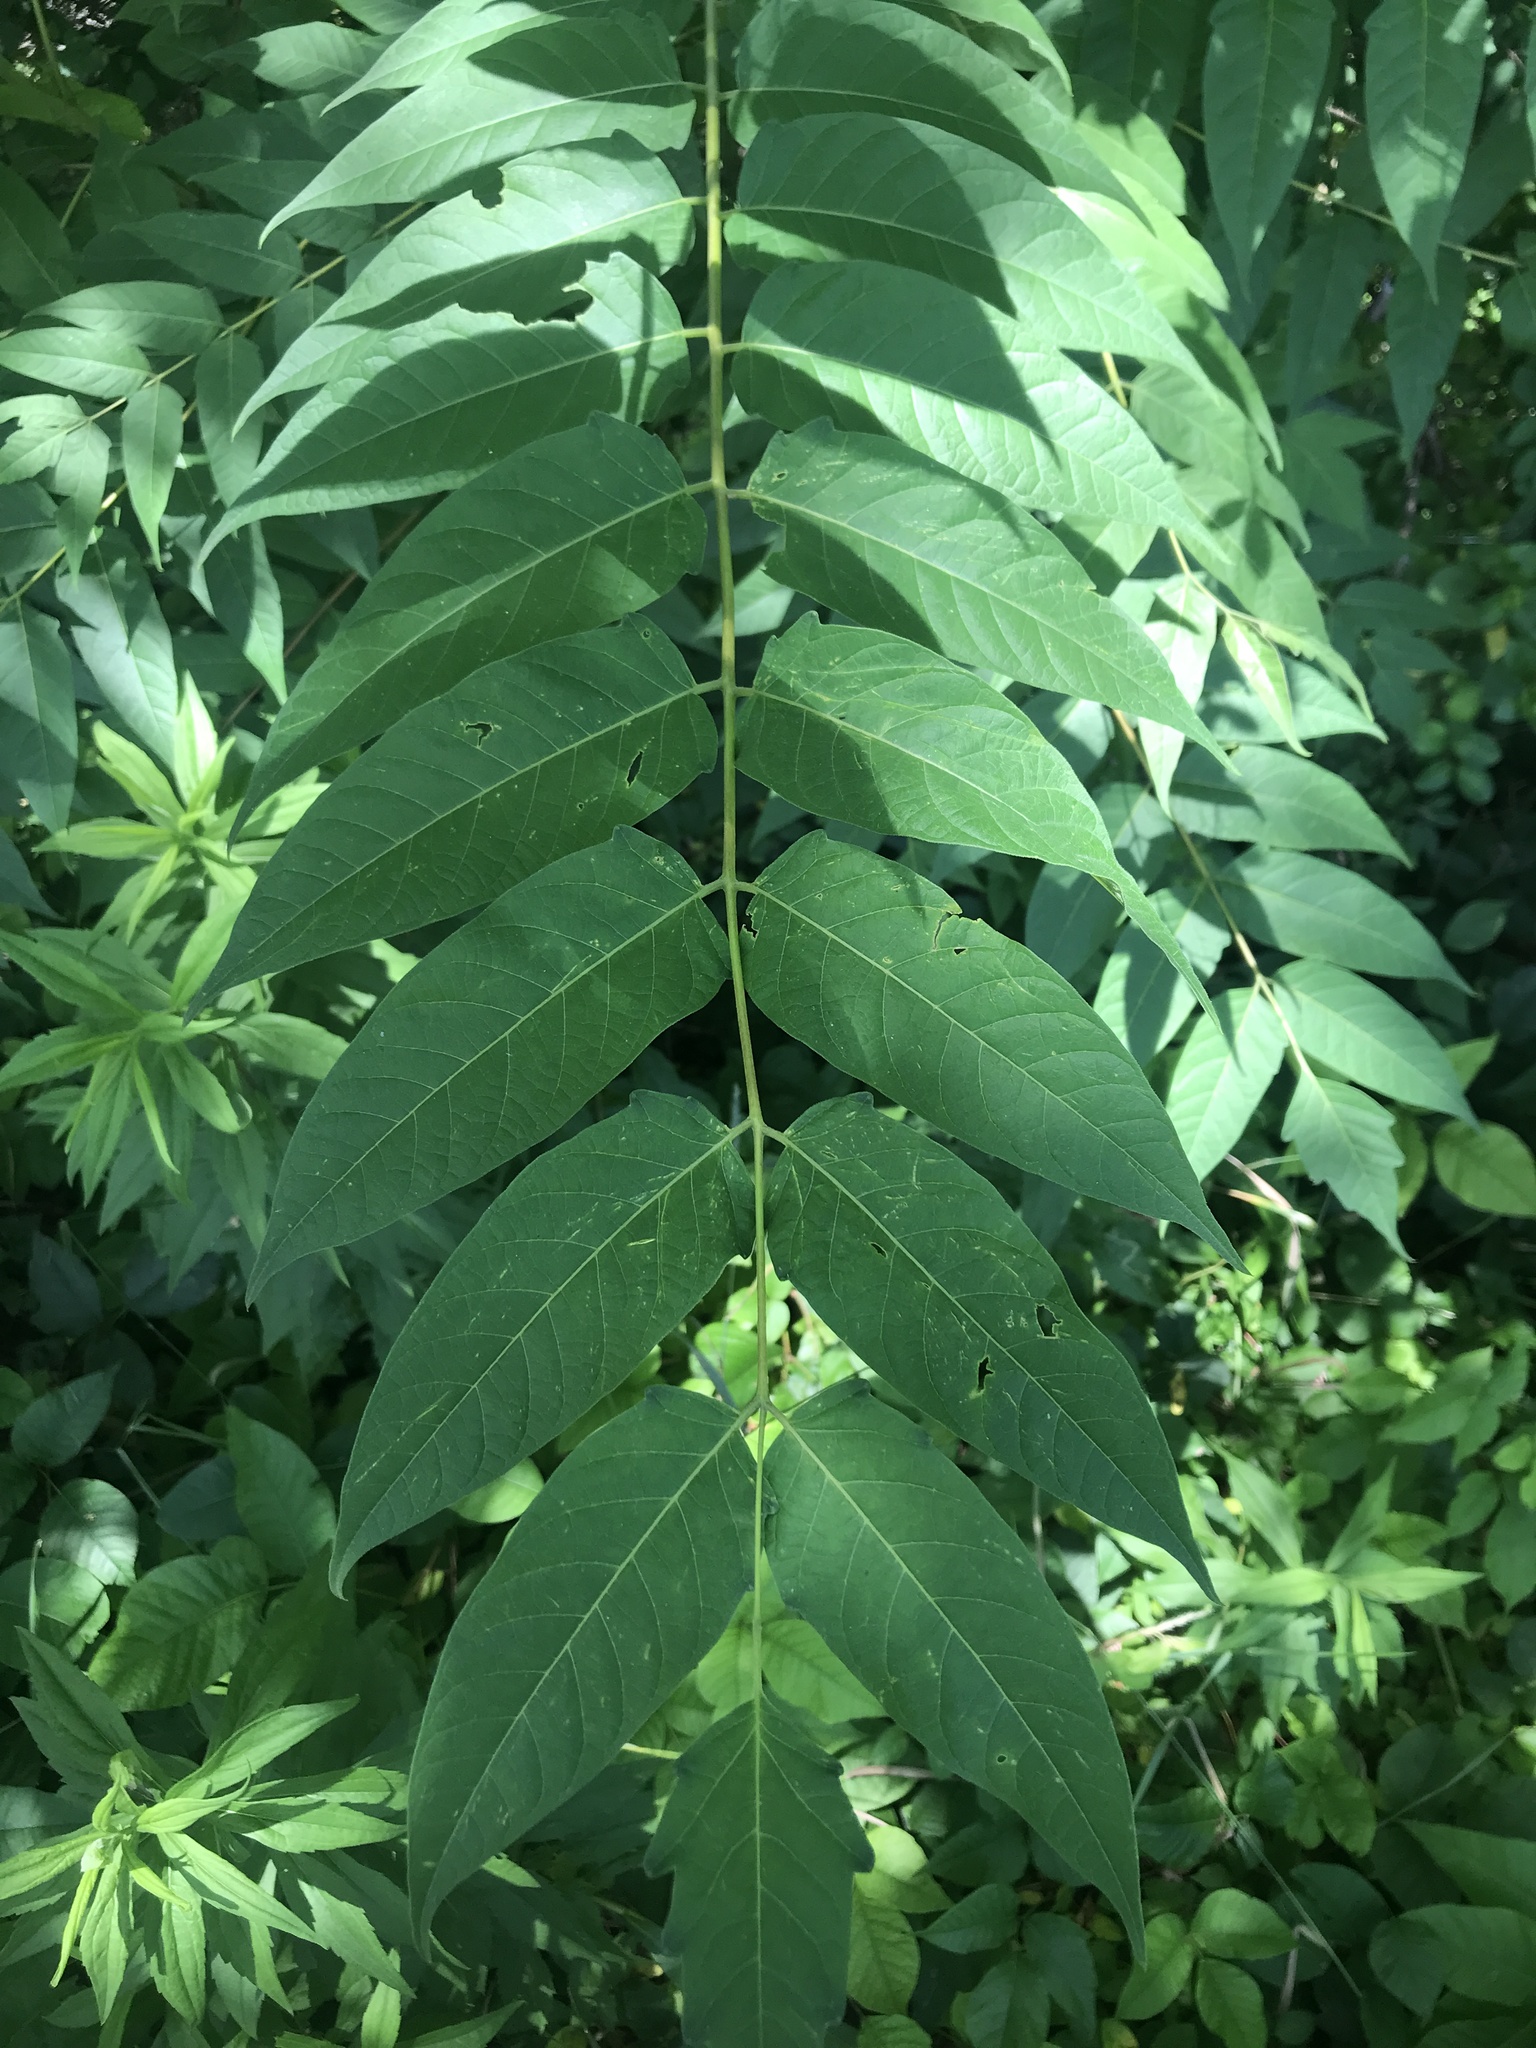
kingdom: Plantae
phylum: Tracheophyta
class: Magnoliopsida
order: Sapindales
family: Simaroubaceae
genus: Ailanthus
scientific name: Ailanthus altissima
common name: Tree-of-heaven
